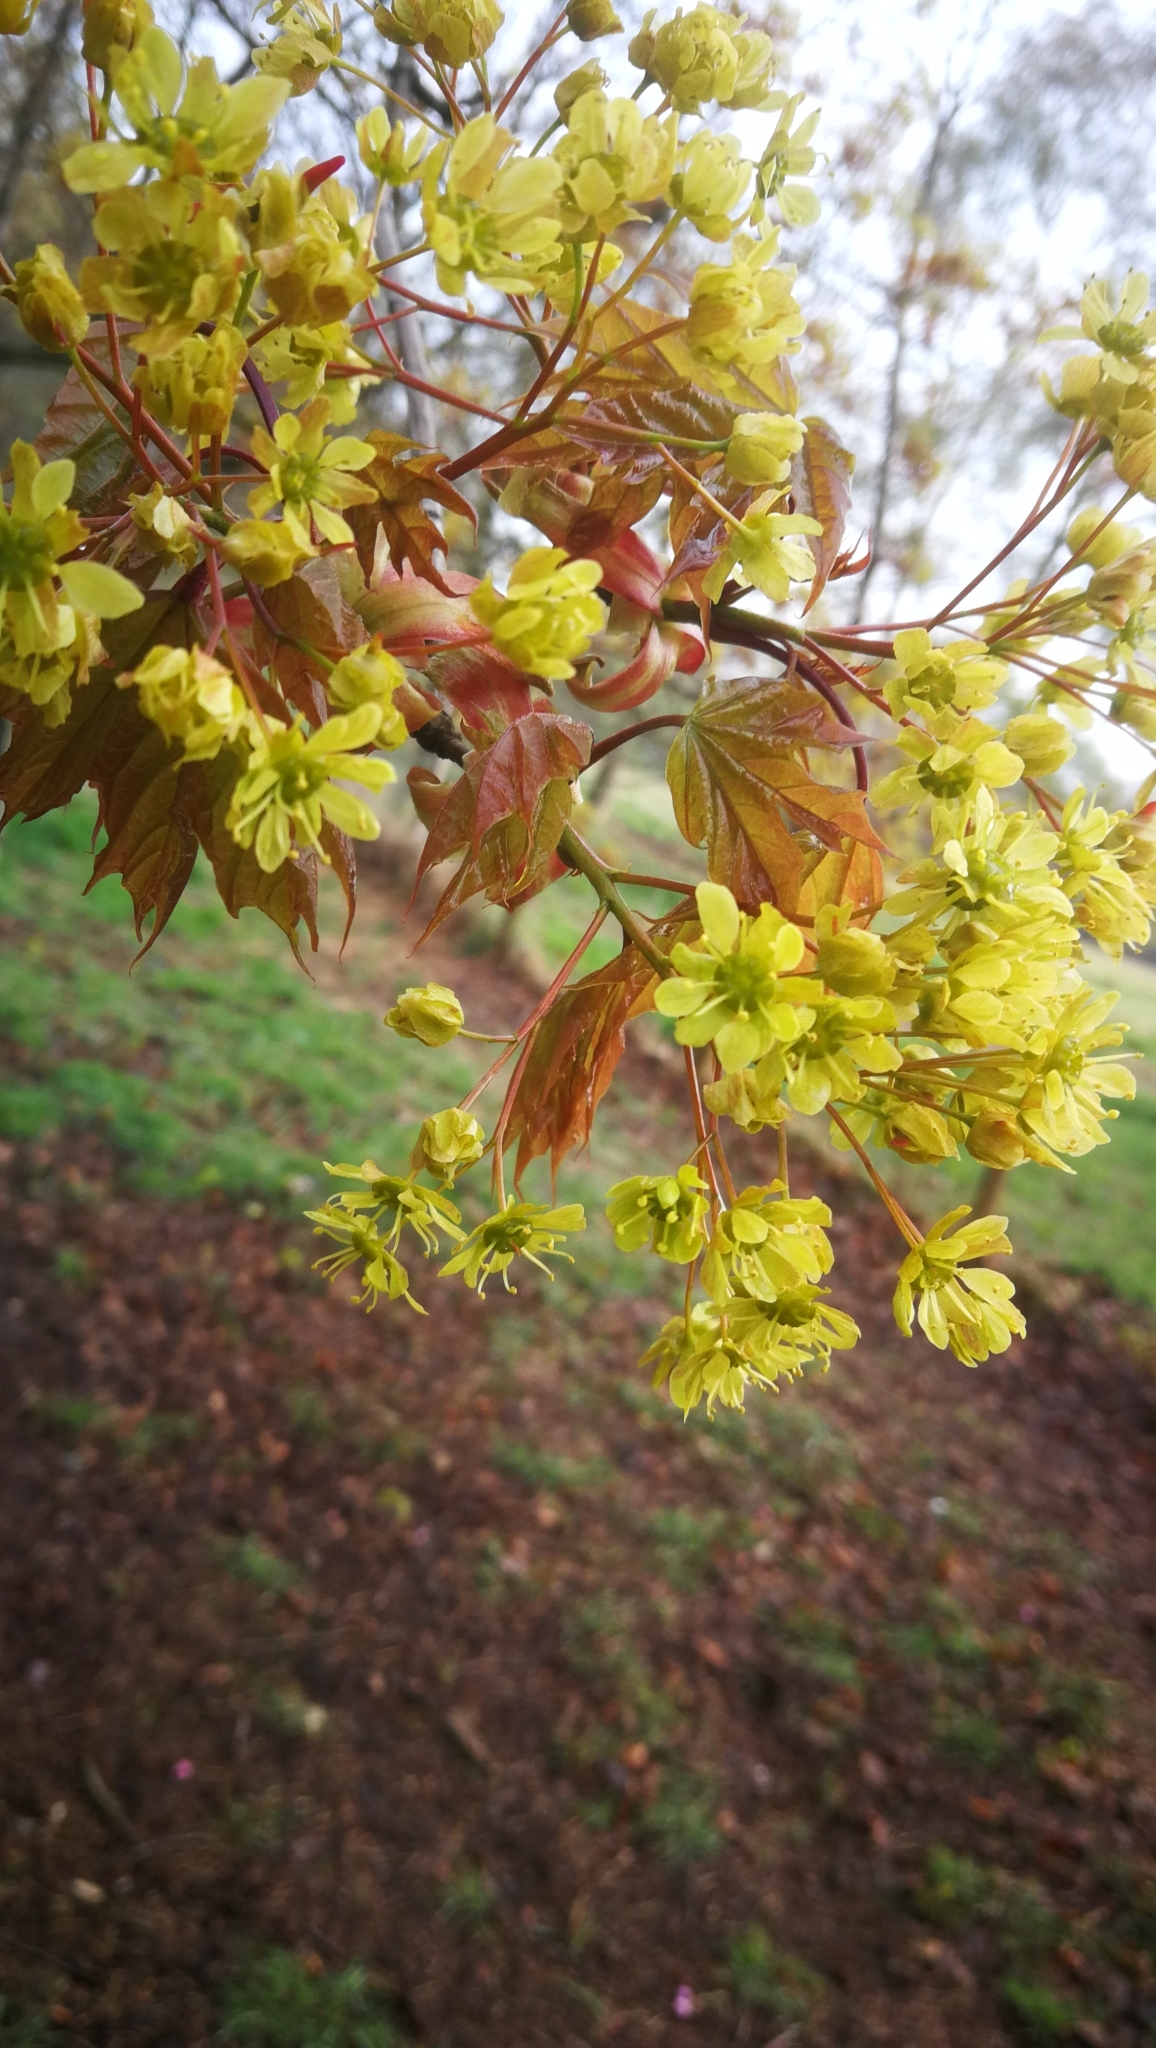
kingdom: Plantae
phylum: Tracheophyta
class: Magnoliopsida
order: Sapindales
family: Sapindaceae
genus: Acer
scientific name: Acer platanoides
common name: Norway maple
